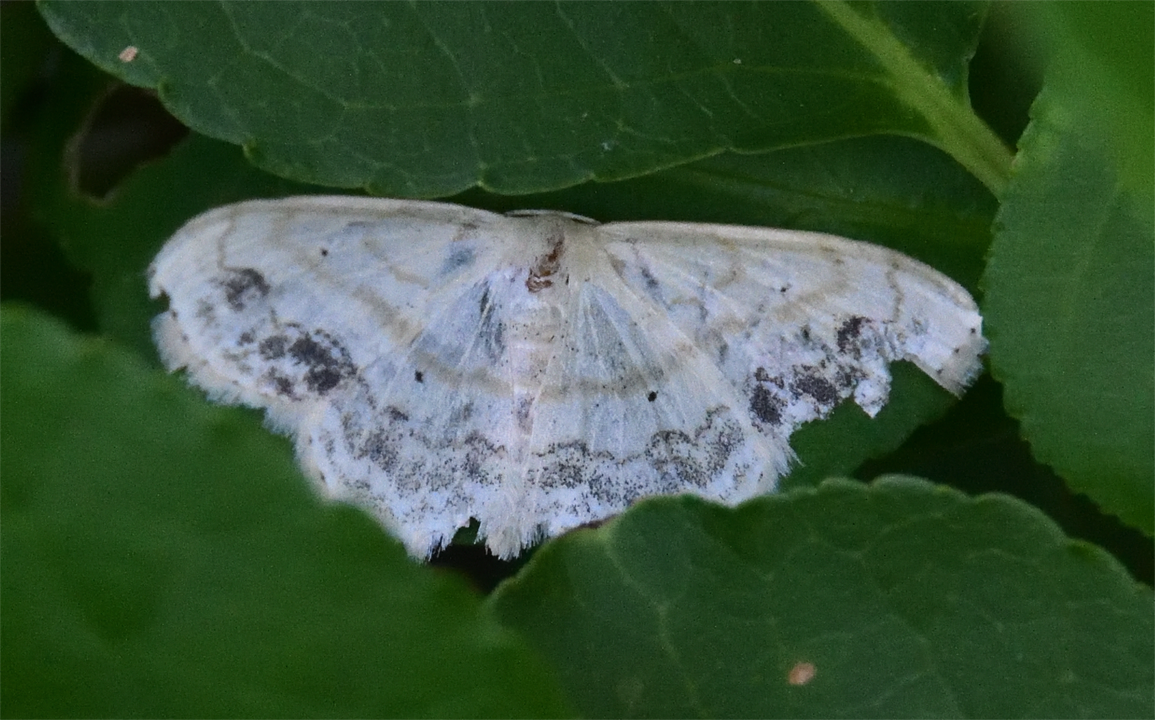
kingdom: Animalia
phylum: Arthropoda
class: Insecta
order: Lepidoptera
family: Geometridae
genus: Scopula
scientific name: Scopula limboundata
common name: Large lace border
